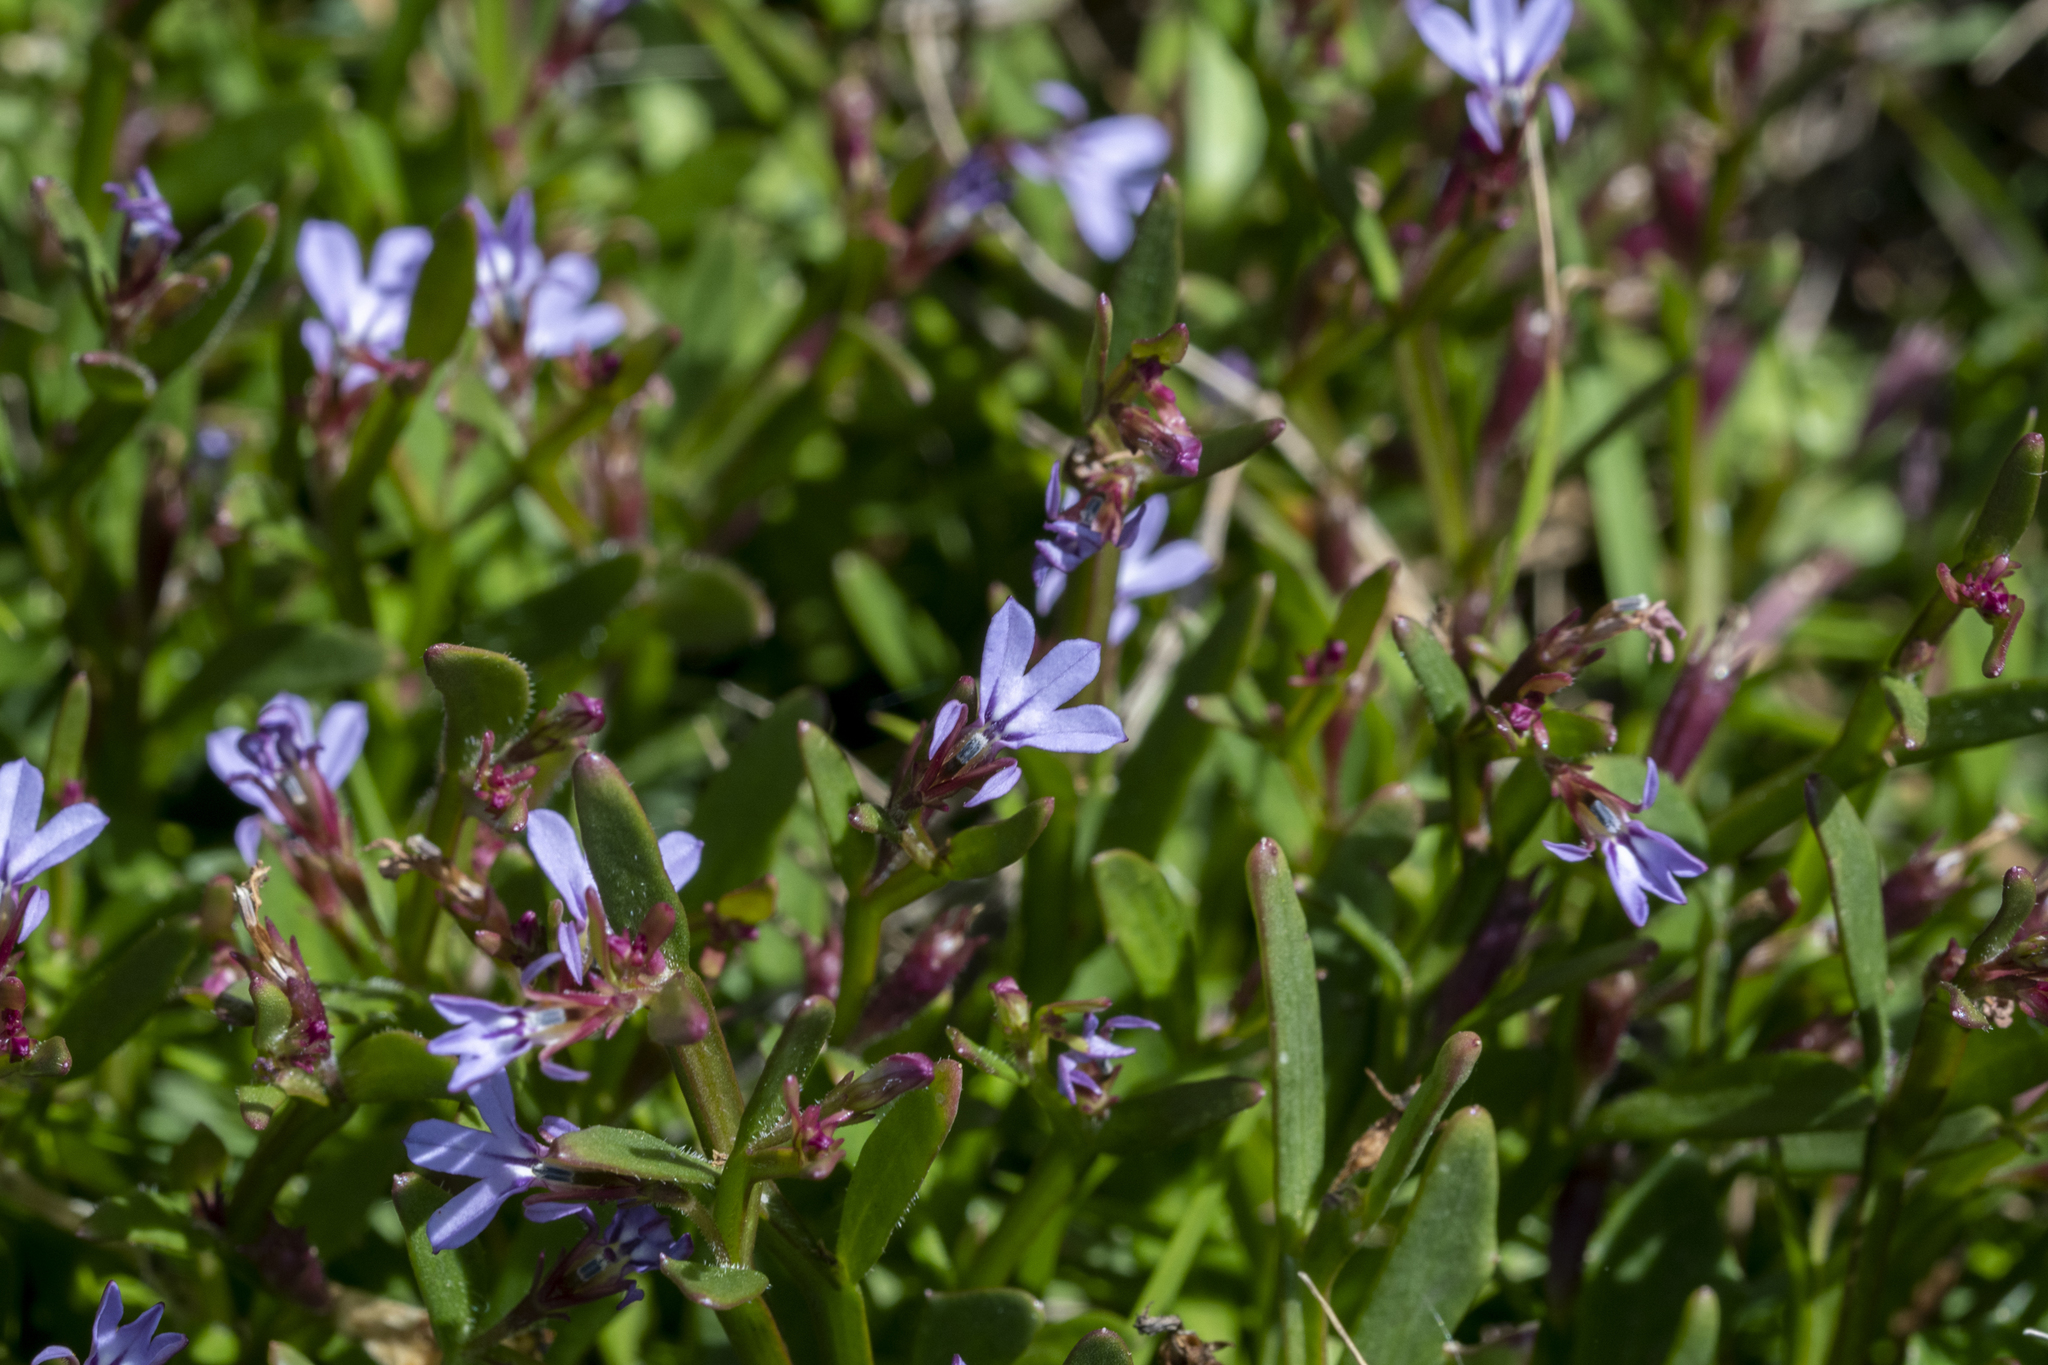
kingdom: Plantae
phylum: Tracheophyta
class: Magnoliopsida
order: Asterales
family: Campanulaceae
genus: Lobelia
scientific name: Lobelia anceps
